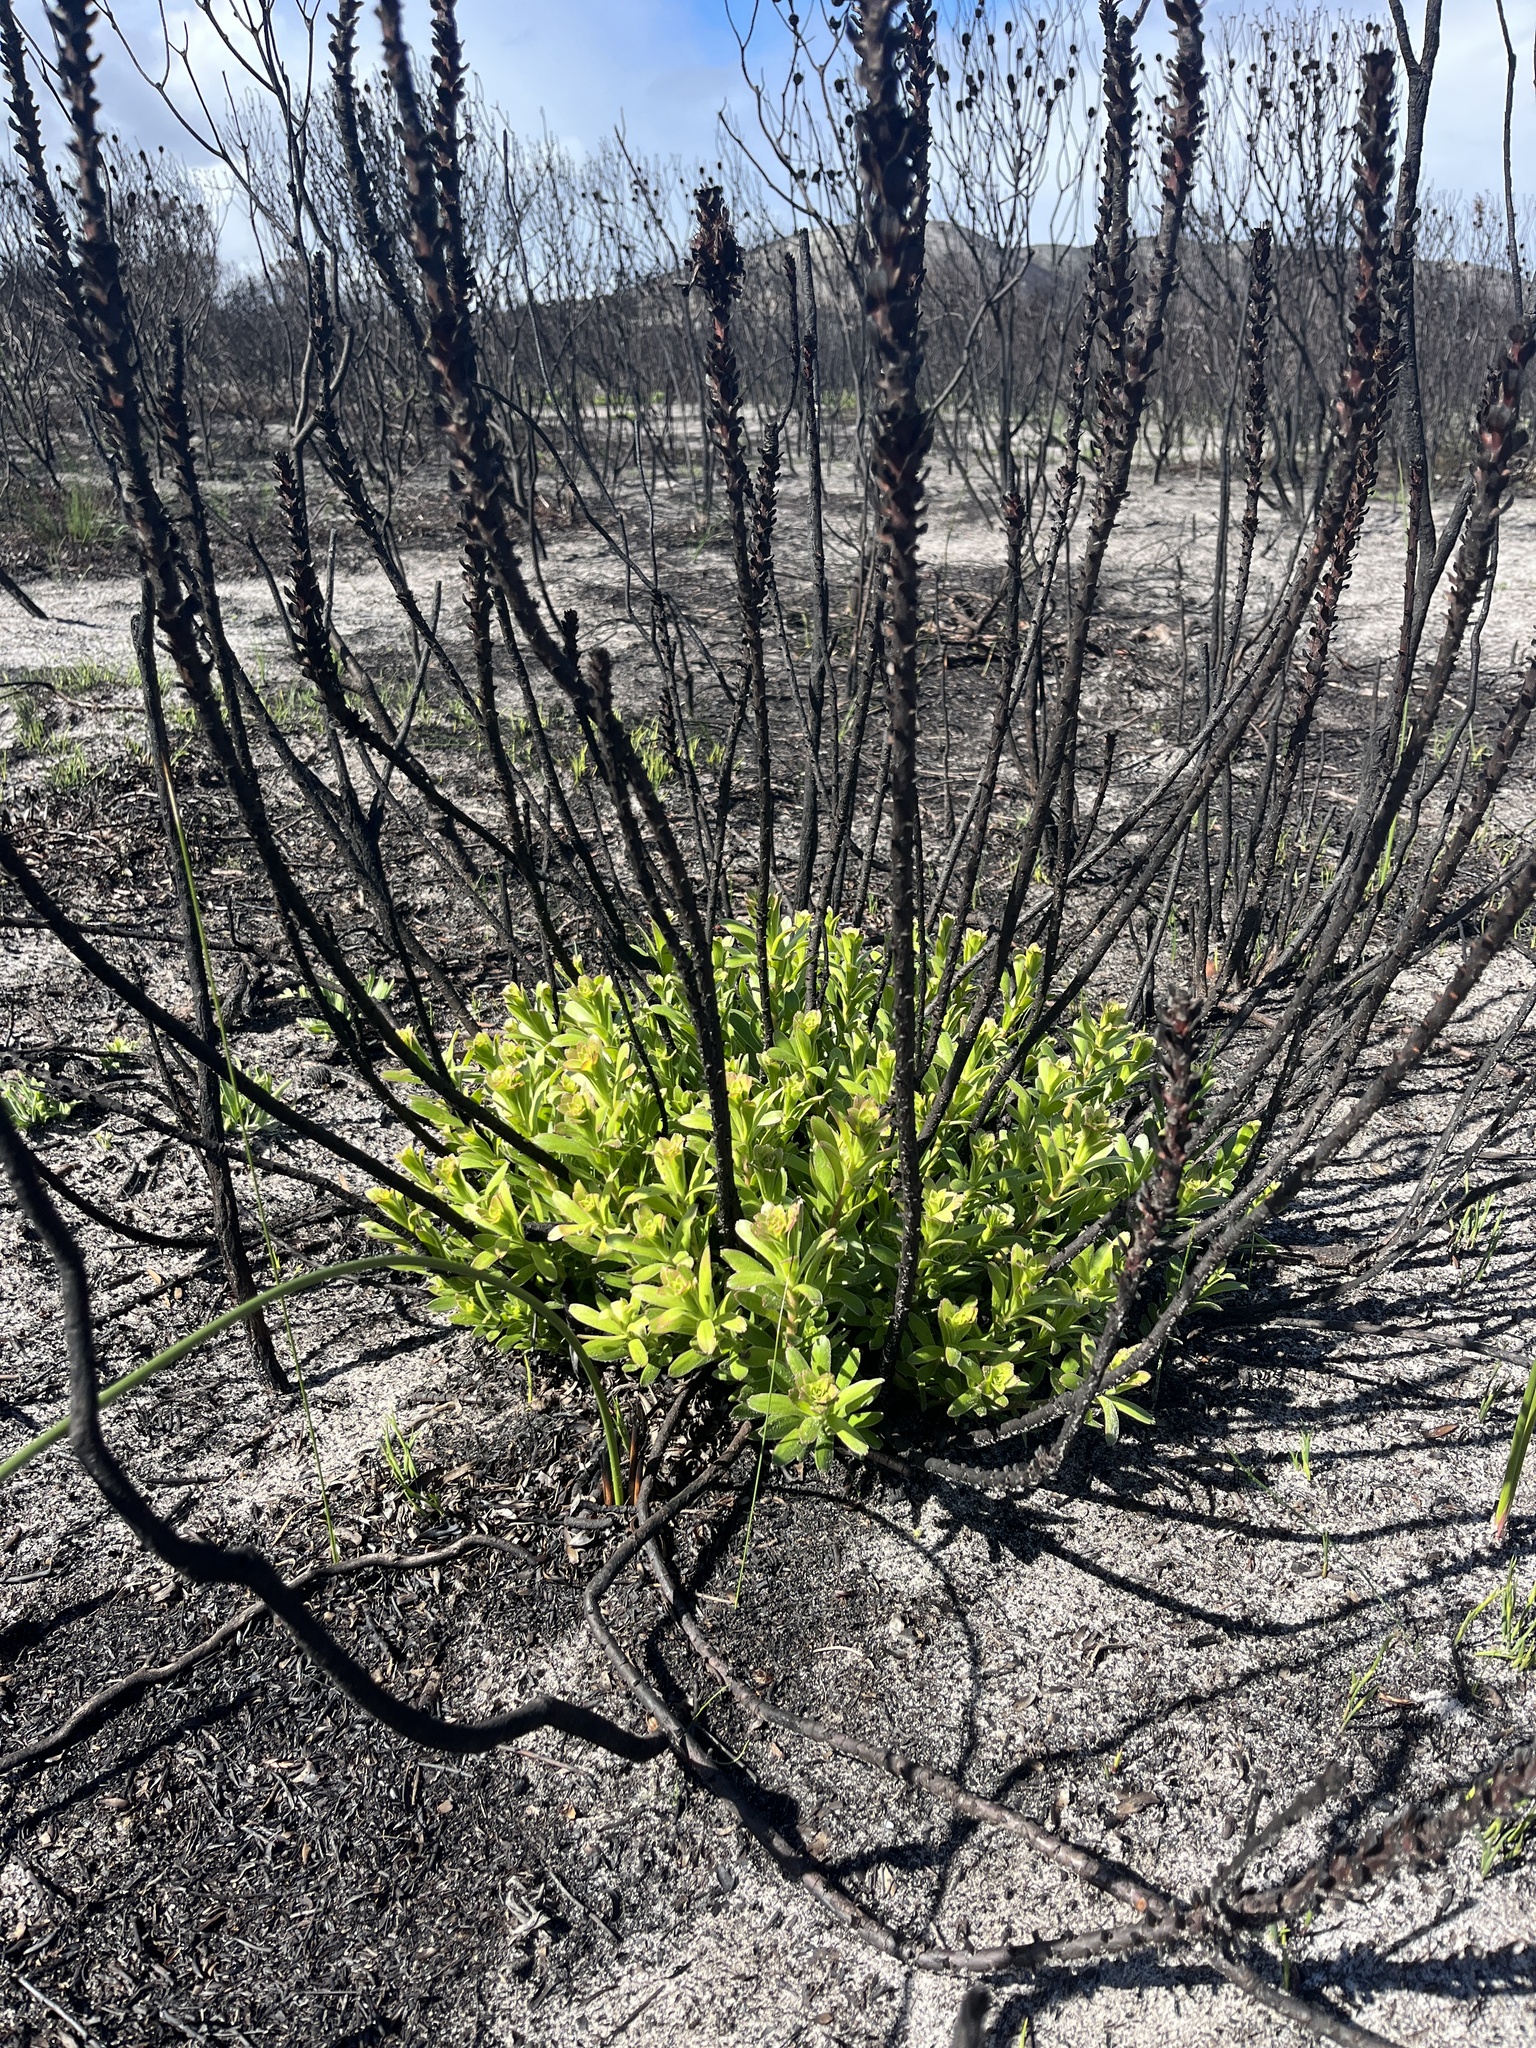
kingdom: Plantae
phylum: Tracheophyta
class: Magnoliopsida
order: Proteales
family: Proteaceae
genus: Mimetes
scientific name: Mimetes cucullatus
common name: Common pagoda
